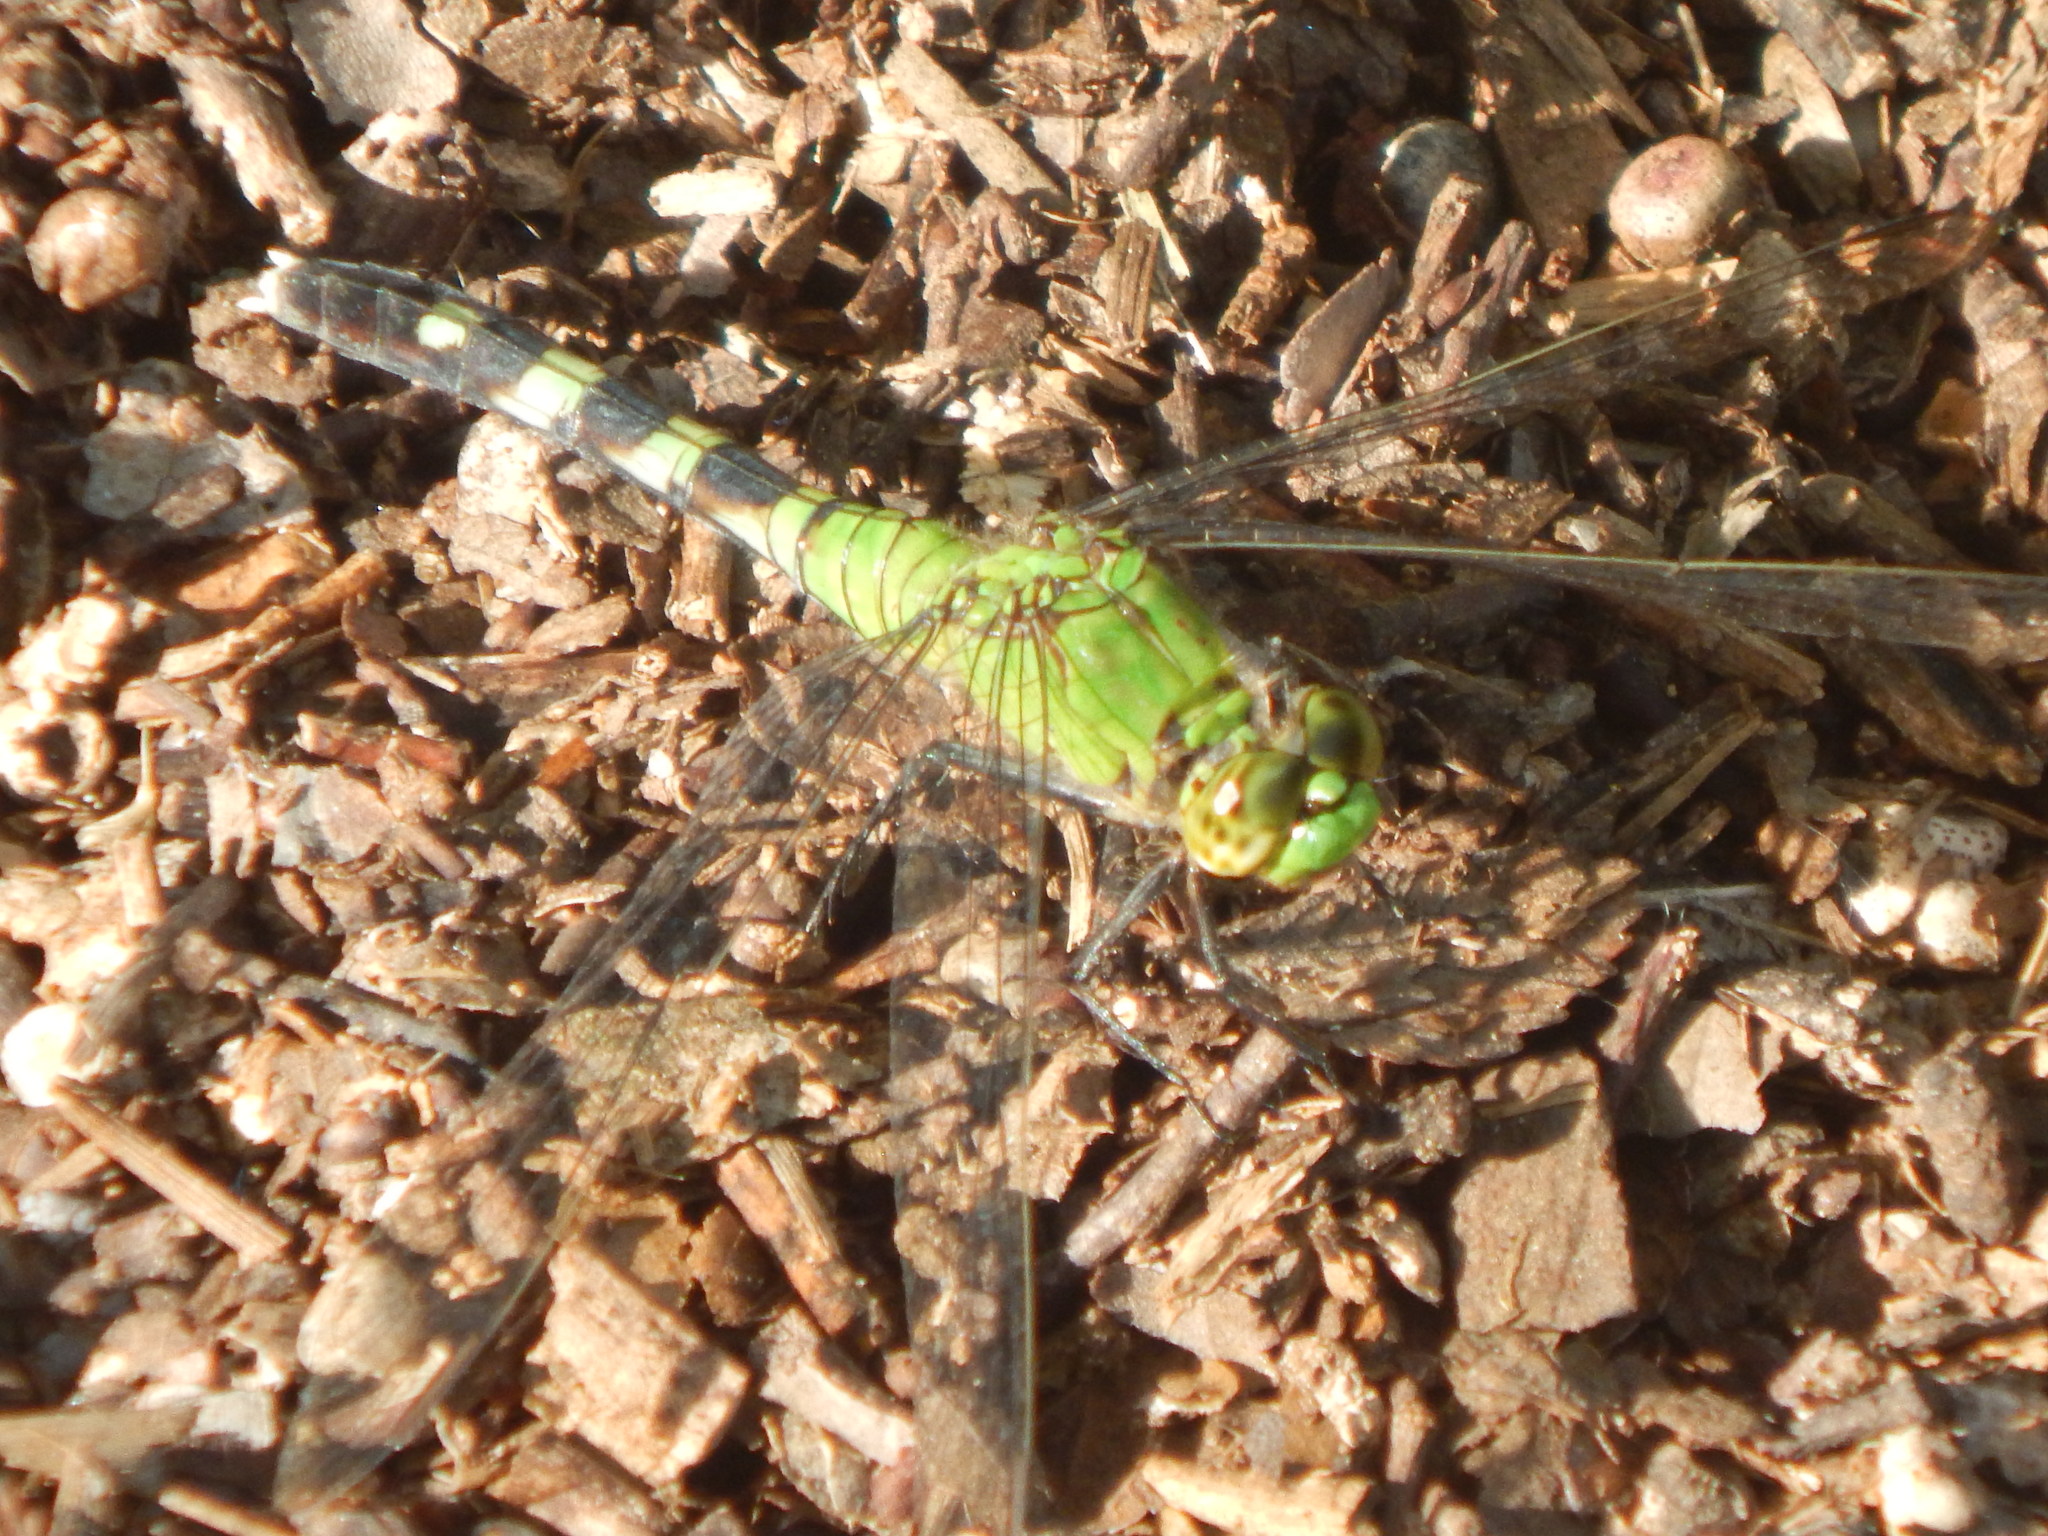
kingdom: Animalia
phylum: Arthropoda
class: Insecta
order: Odonata
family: Libellulidae
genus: Erythemis
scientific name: Erythemis simplicicollis
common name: Eastern pondhawk
